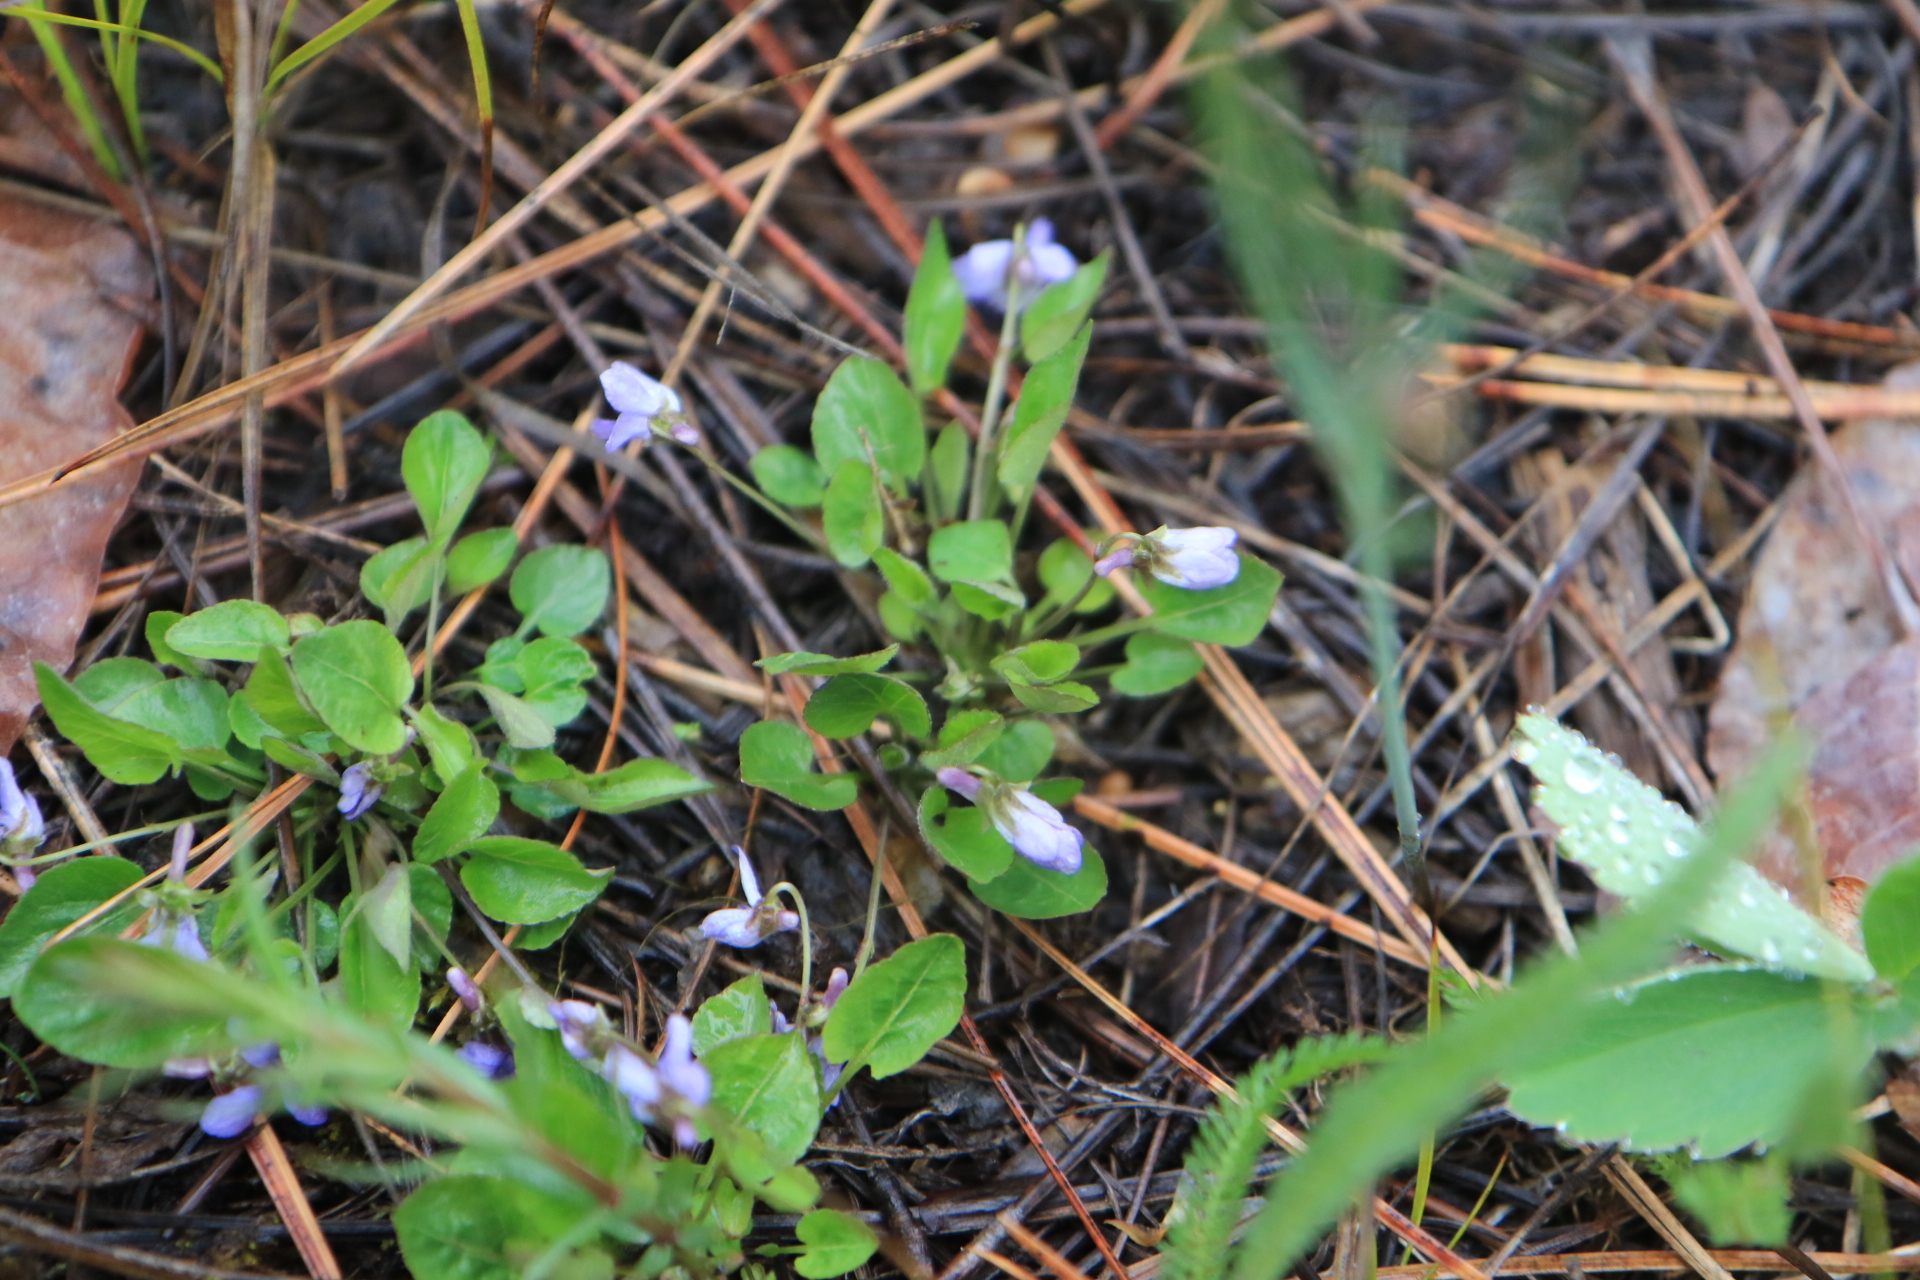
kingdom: Plantae
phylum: Tracheophyta
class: Magnoliopsida
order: Malpighiales
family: Violaceae
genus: Viola
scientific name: Viola adunca
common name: Sand violet
